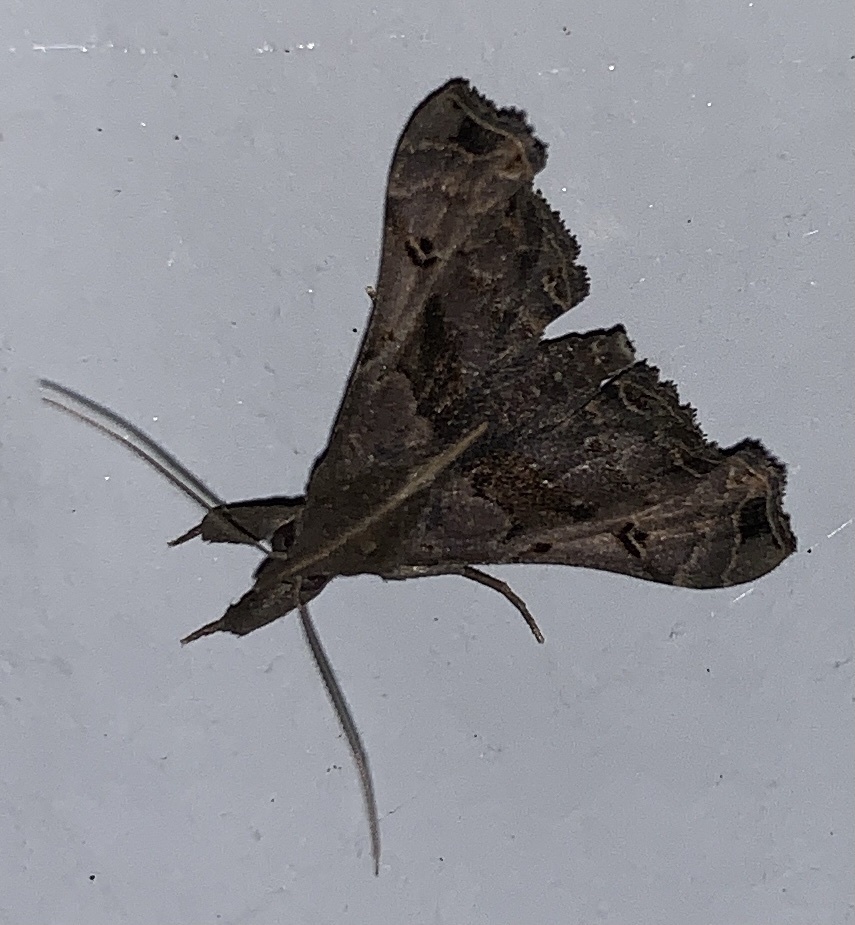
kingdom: Animalia
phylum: Arthropoda
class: Insecta
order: Lepidoptera
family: Erebidae
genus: Palthis
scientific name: Palthis asopialis
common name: Faint-spotted palthis moth
